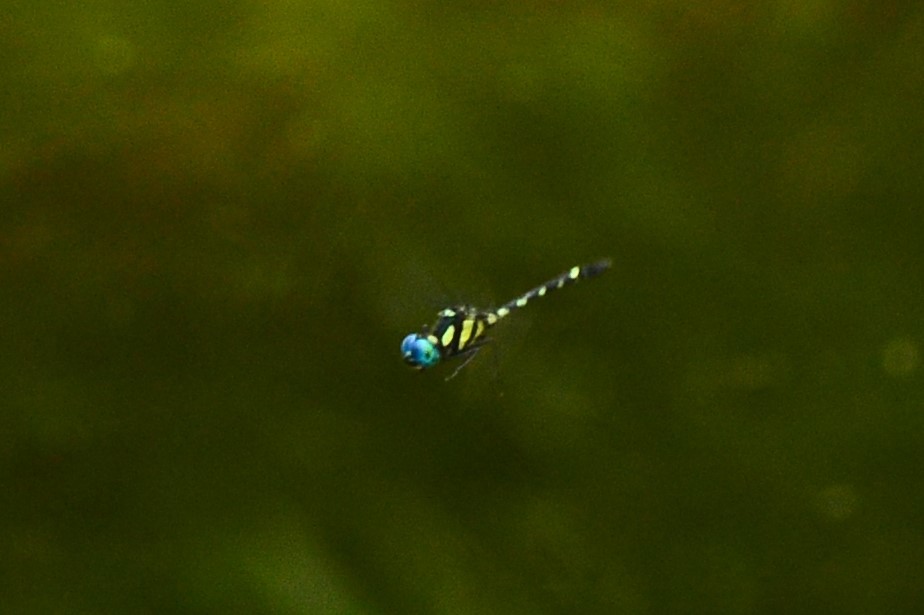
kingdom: Animalia
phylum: Arthropoda
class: Insecta
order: Odonata
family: Libellulidae
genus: Tetrathemis
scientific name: Tetrathemis platyptera
